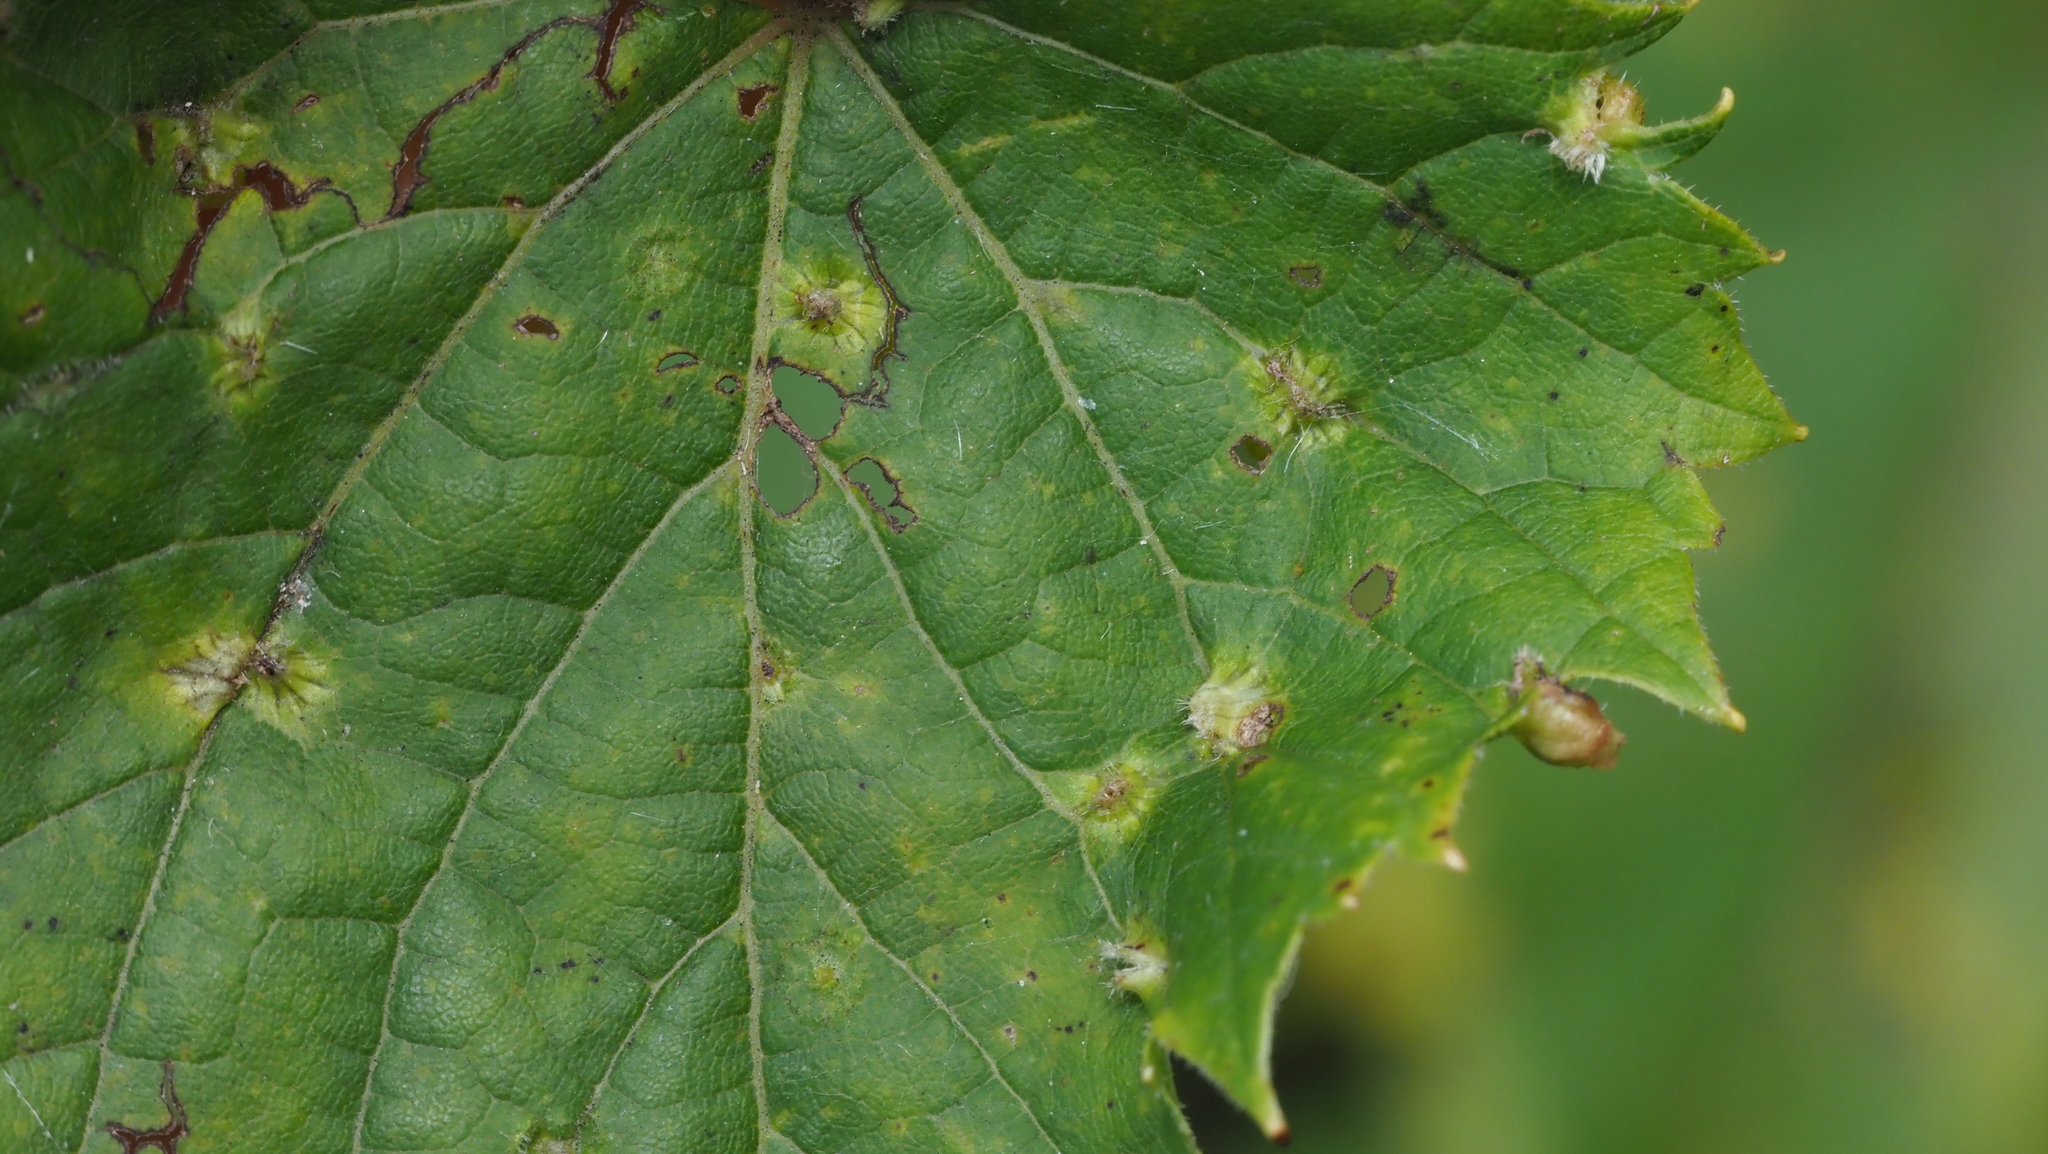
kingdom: Animalia
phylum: Arthropoda
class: Insecta
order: Hemiptera
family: Phylloxeridae
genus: Daktulosphaira
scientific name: Daktulosphaira vitifoliae
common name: Grape phylloxera
